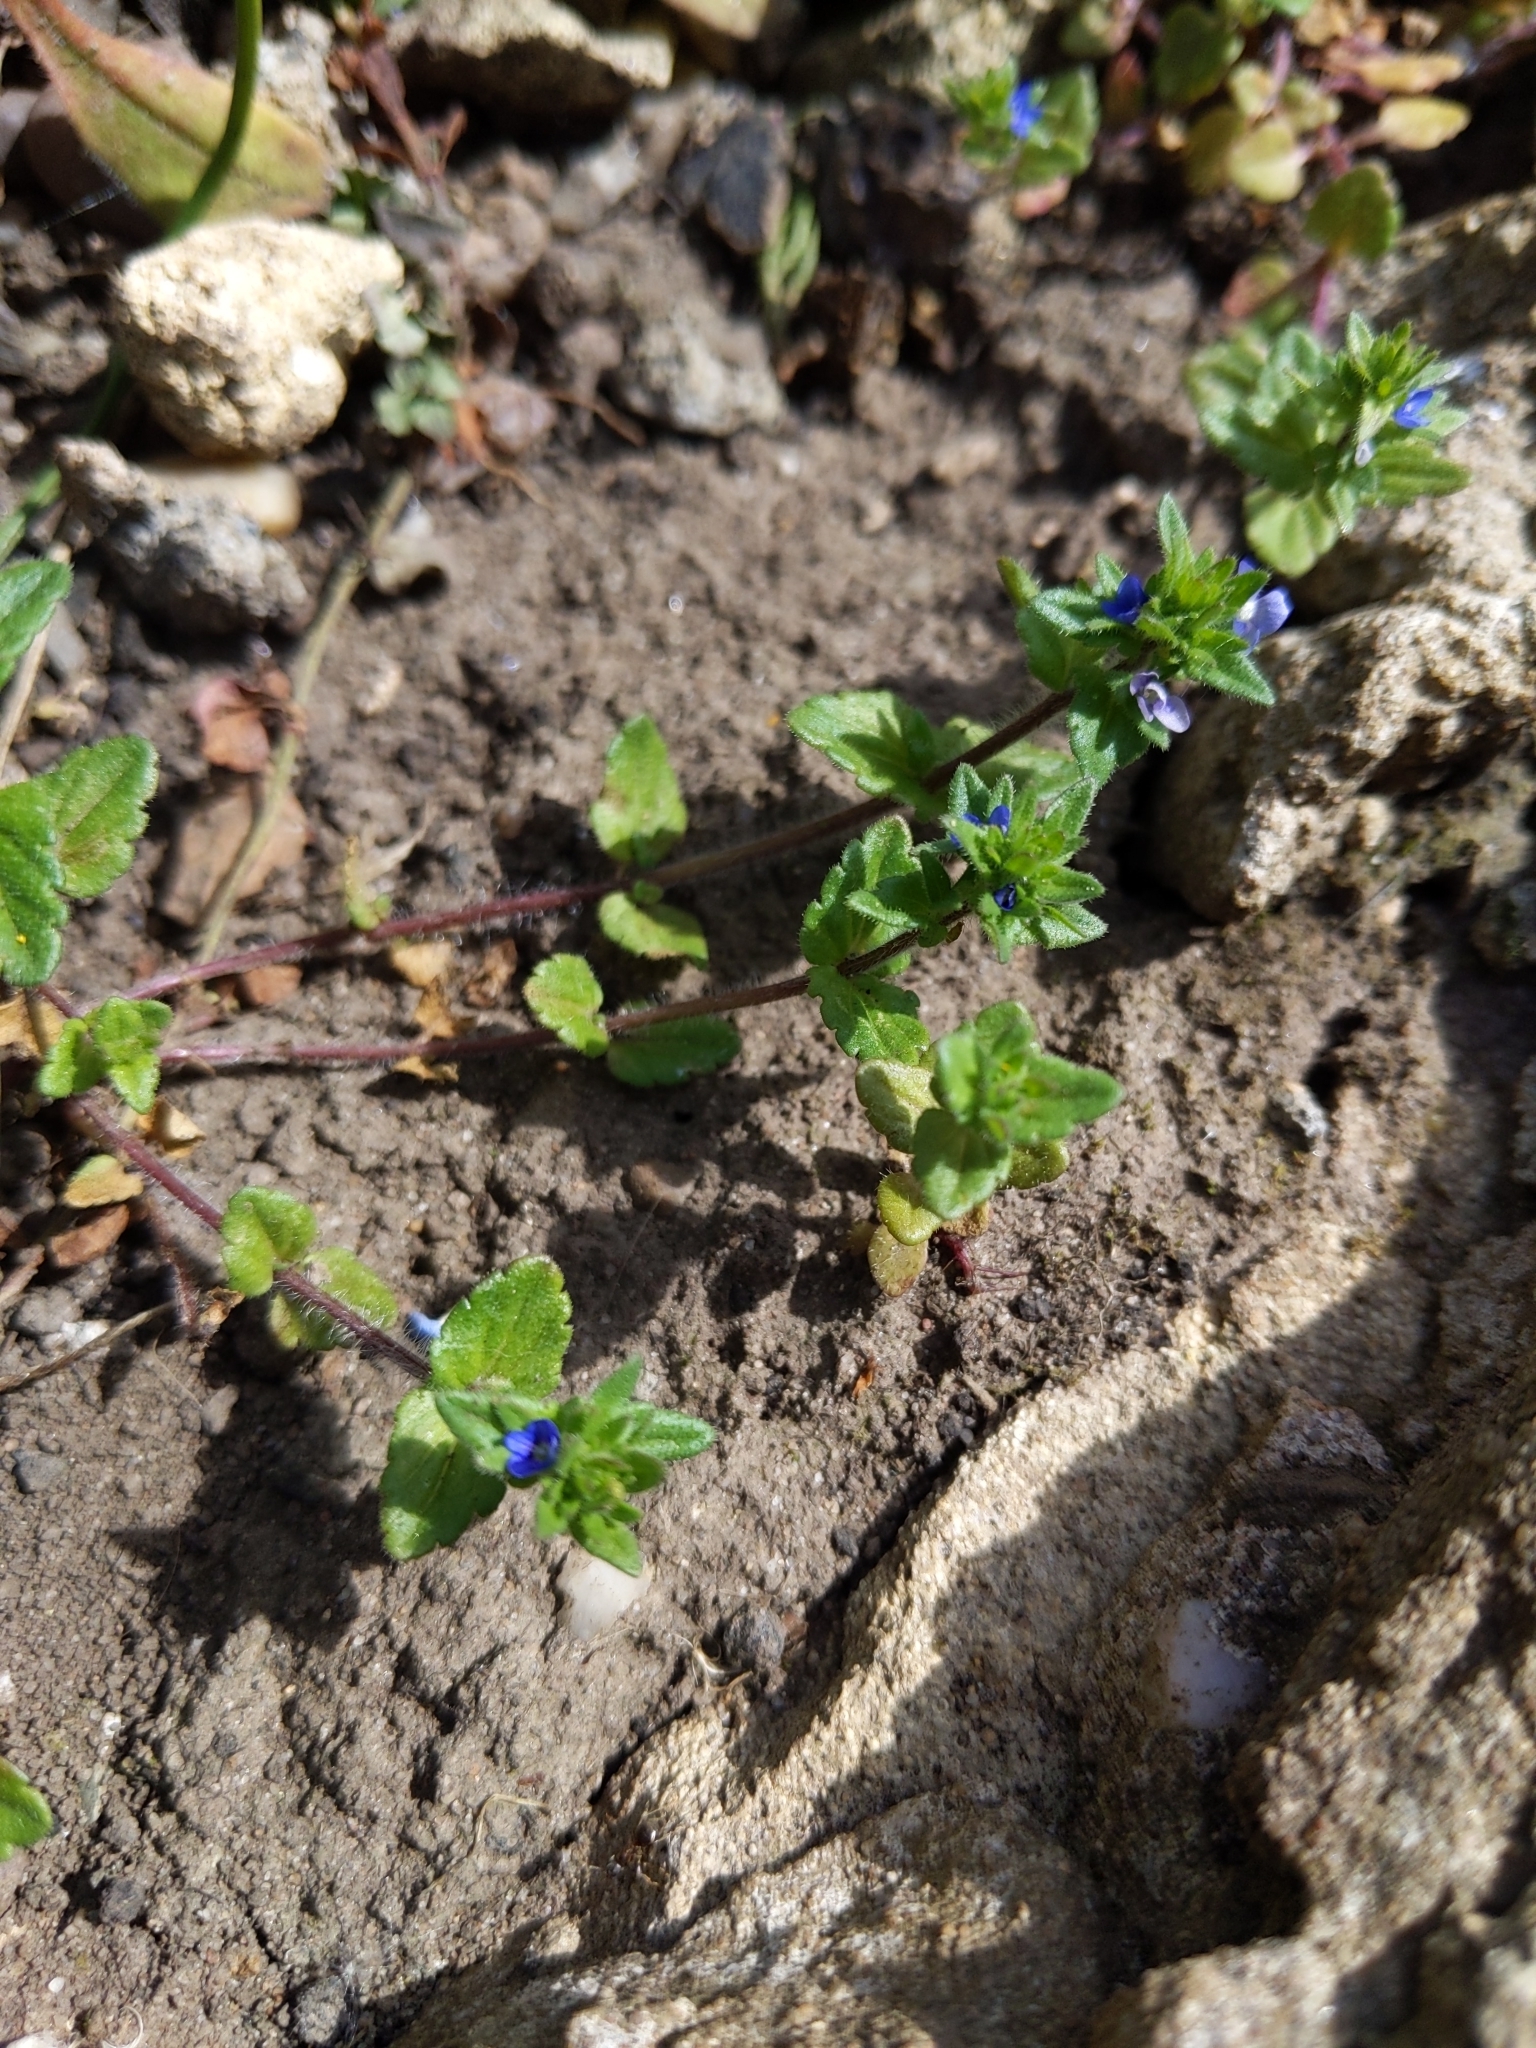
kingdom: Plantae
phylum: Tracheophyta
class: Magnoliopsida
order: Lamiales
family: Plantaginaceae
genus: Veronica
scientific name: Veronica arvensis
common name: Corn speedwell
